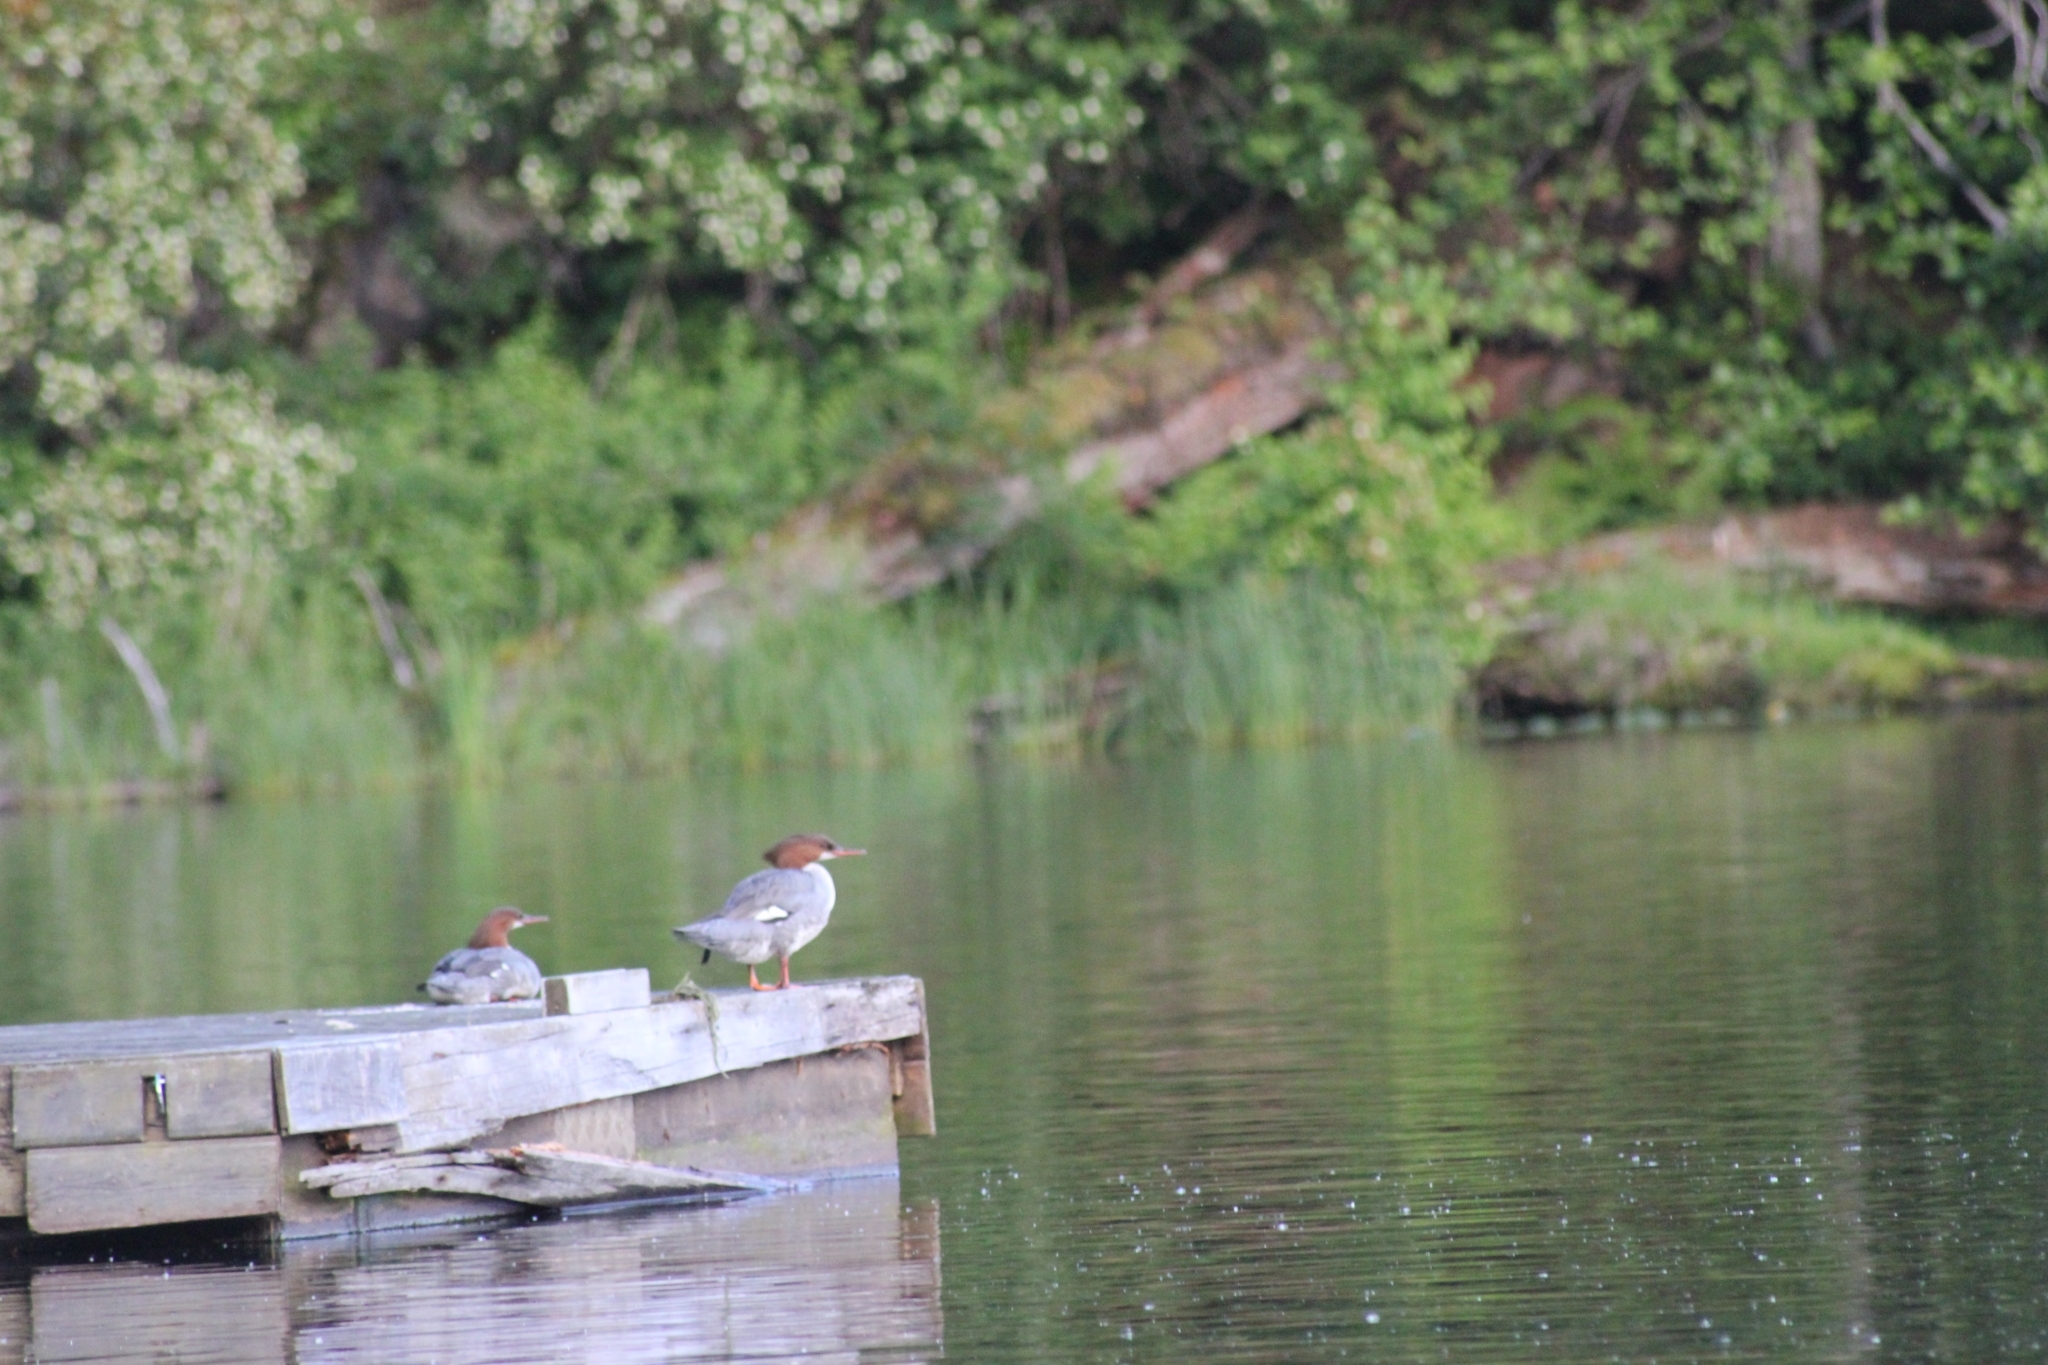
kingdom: Animalia
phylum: Chordata
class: Aves
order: Anseriformes
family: Anatidae
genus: Mergus
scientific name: Mergus merganser
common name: Common merganser
